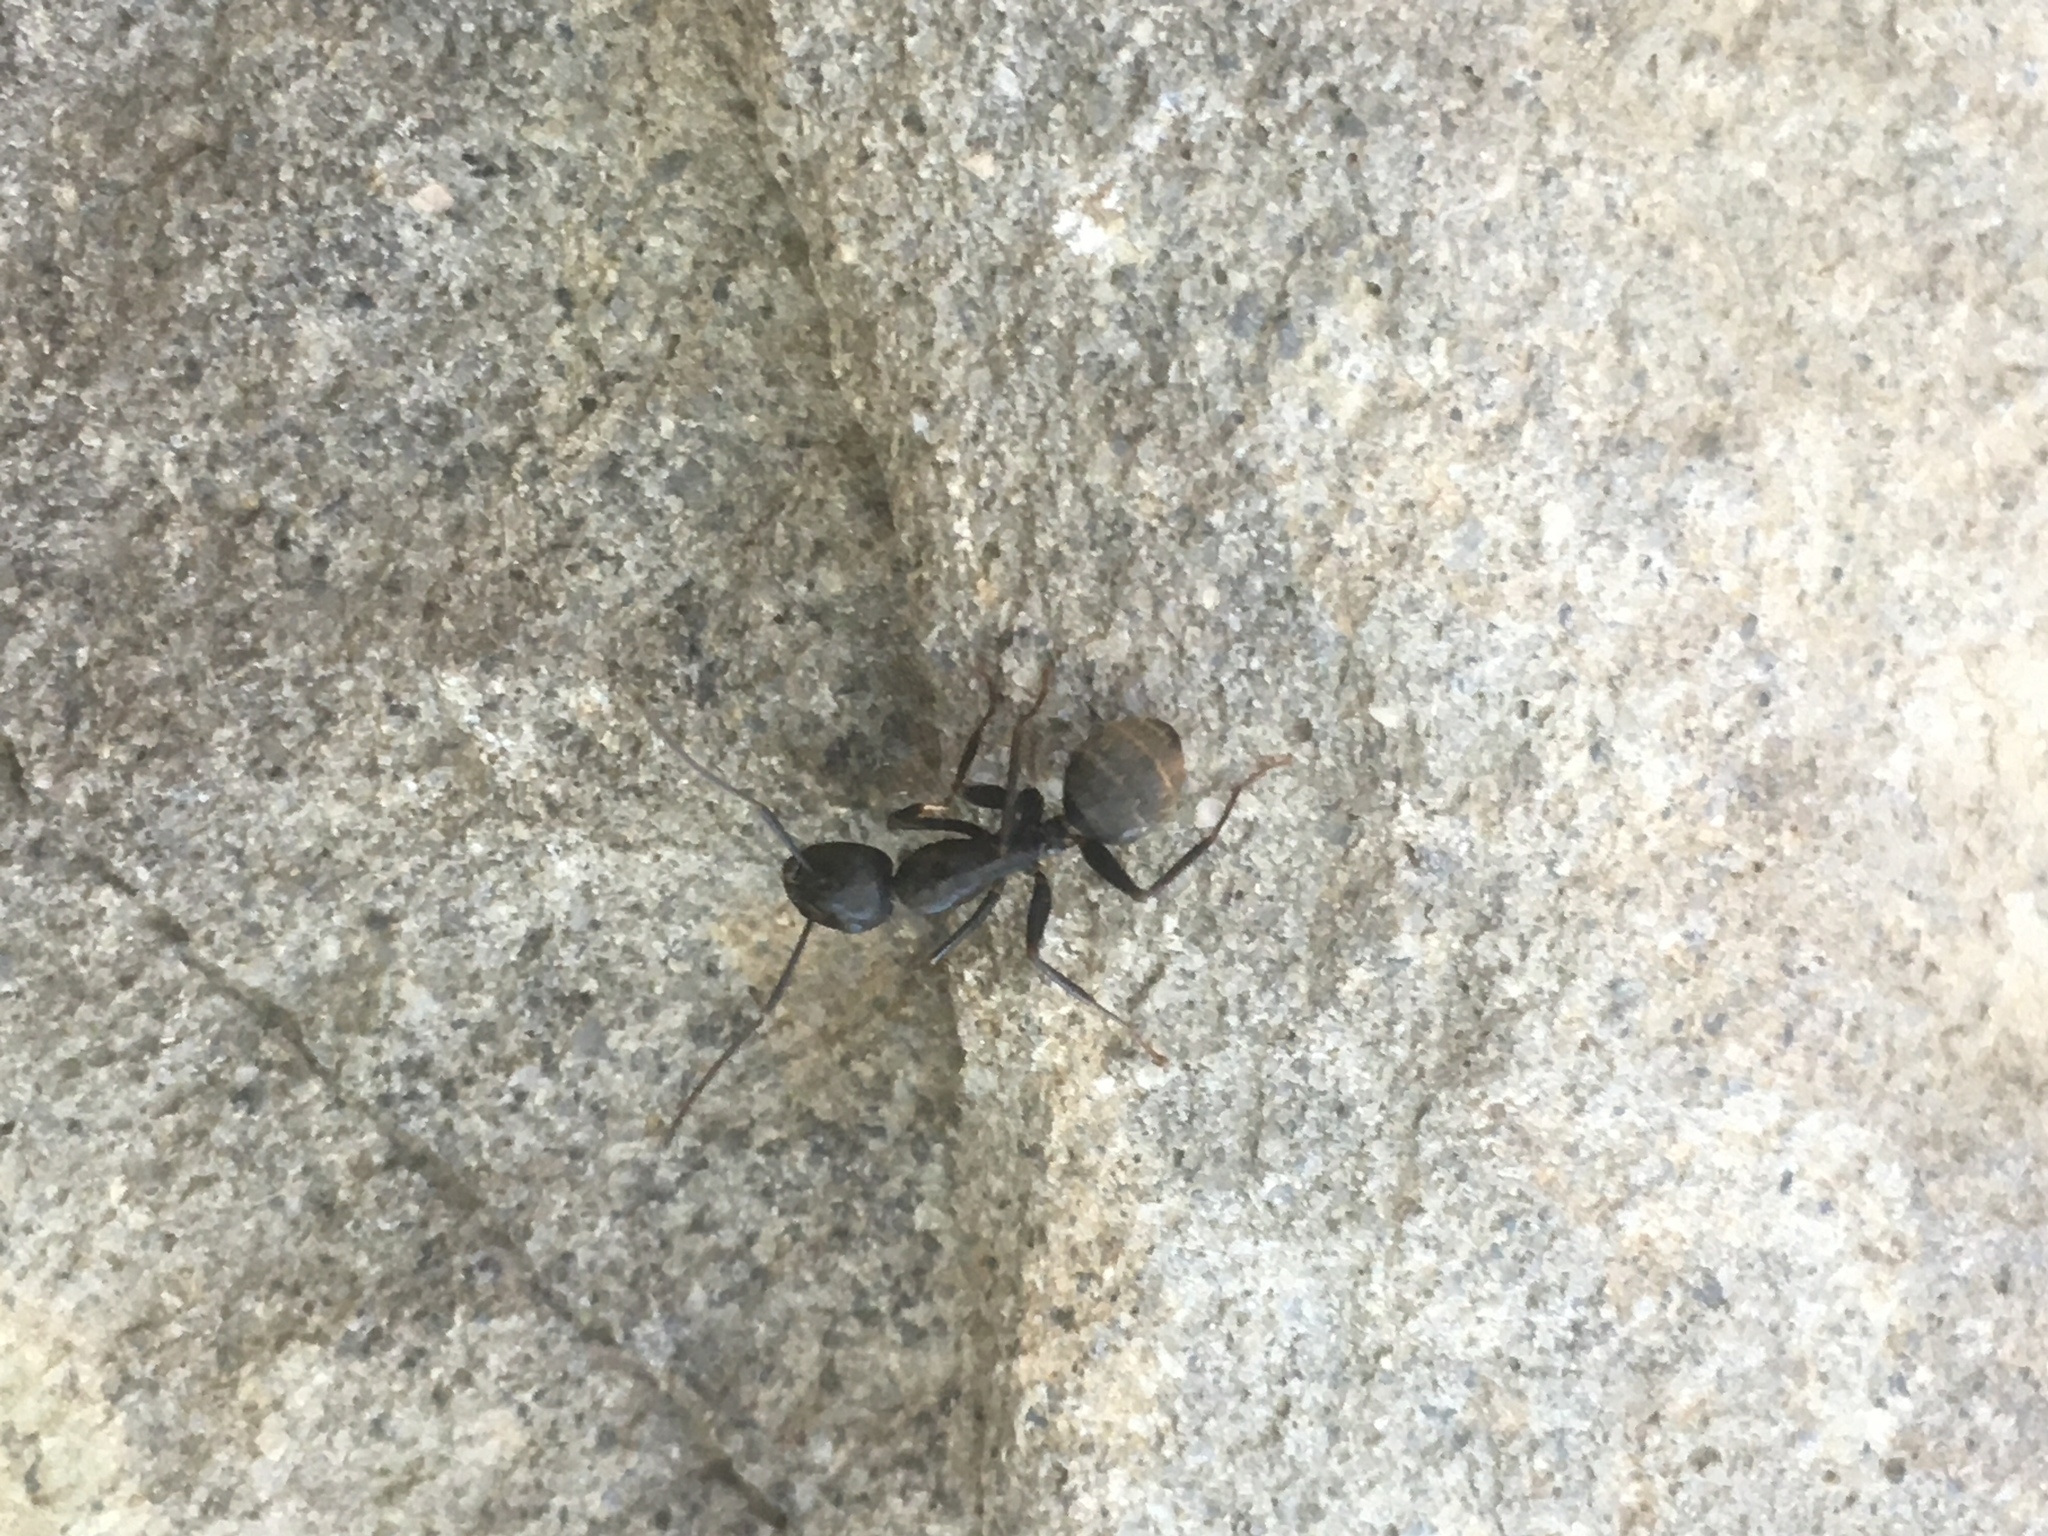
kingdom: Animalia
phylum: Arthropoda
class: Insecta
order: Hymenoptera
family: Formicidae
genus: Camponotus
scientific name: Camponotus pennsylvanicus
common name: Black carpenter ant
